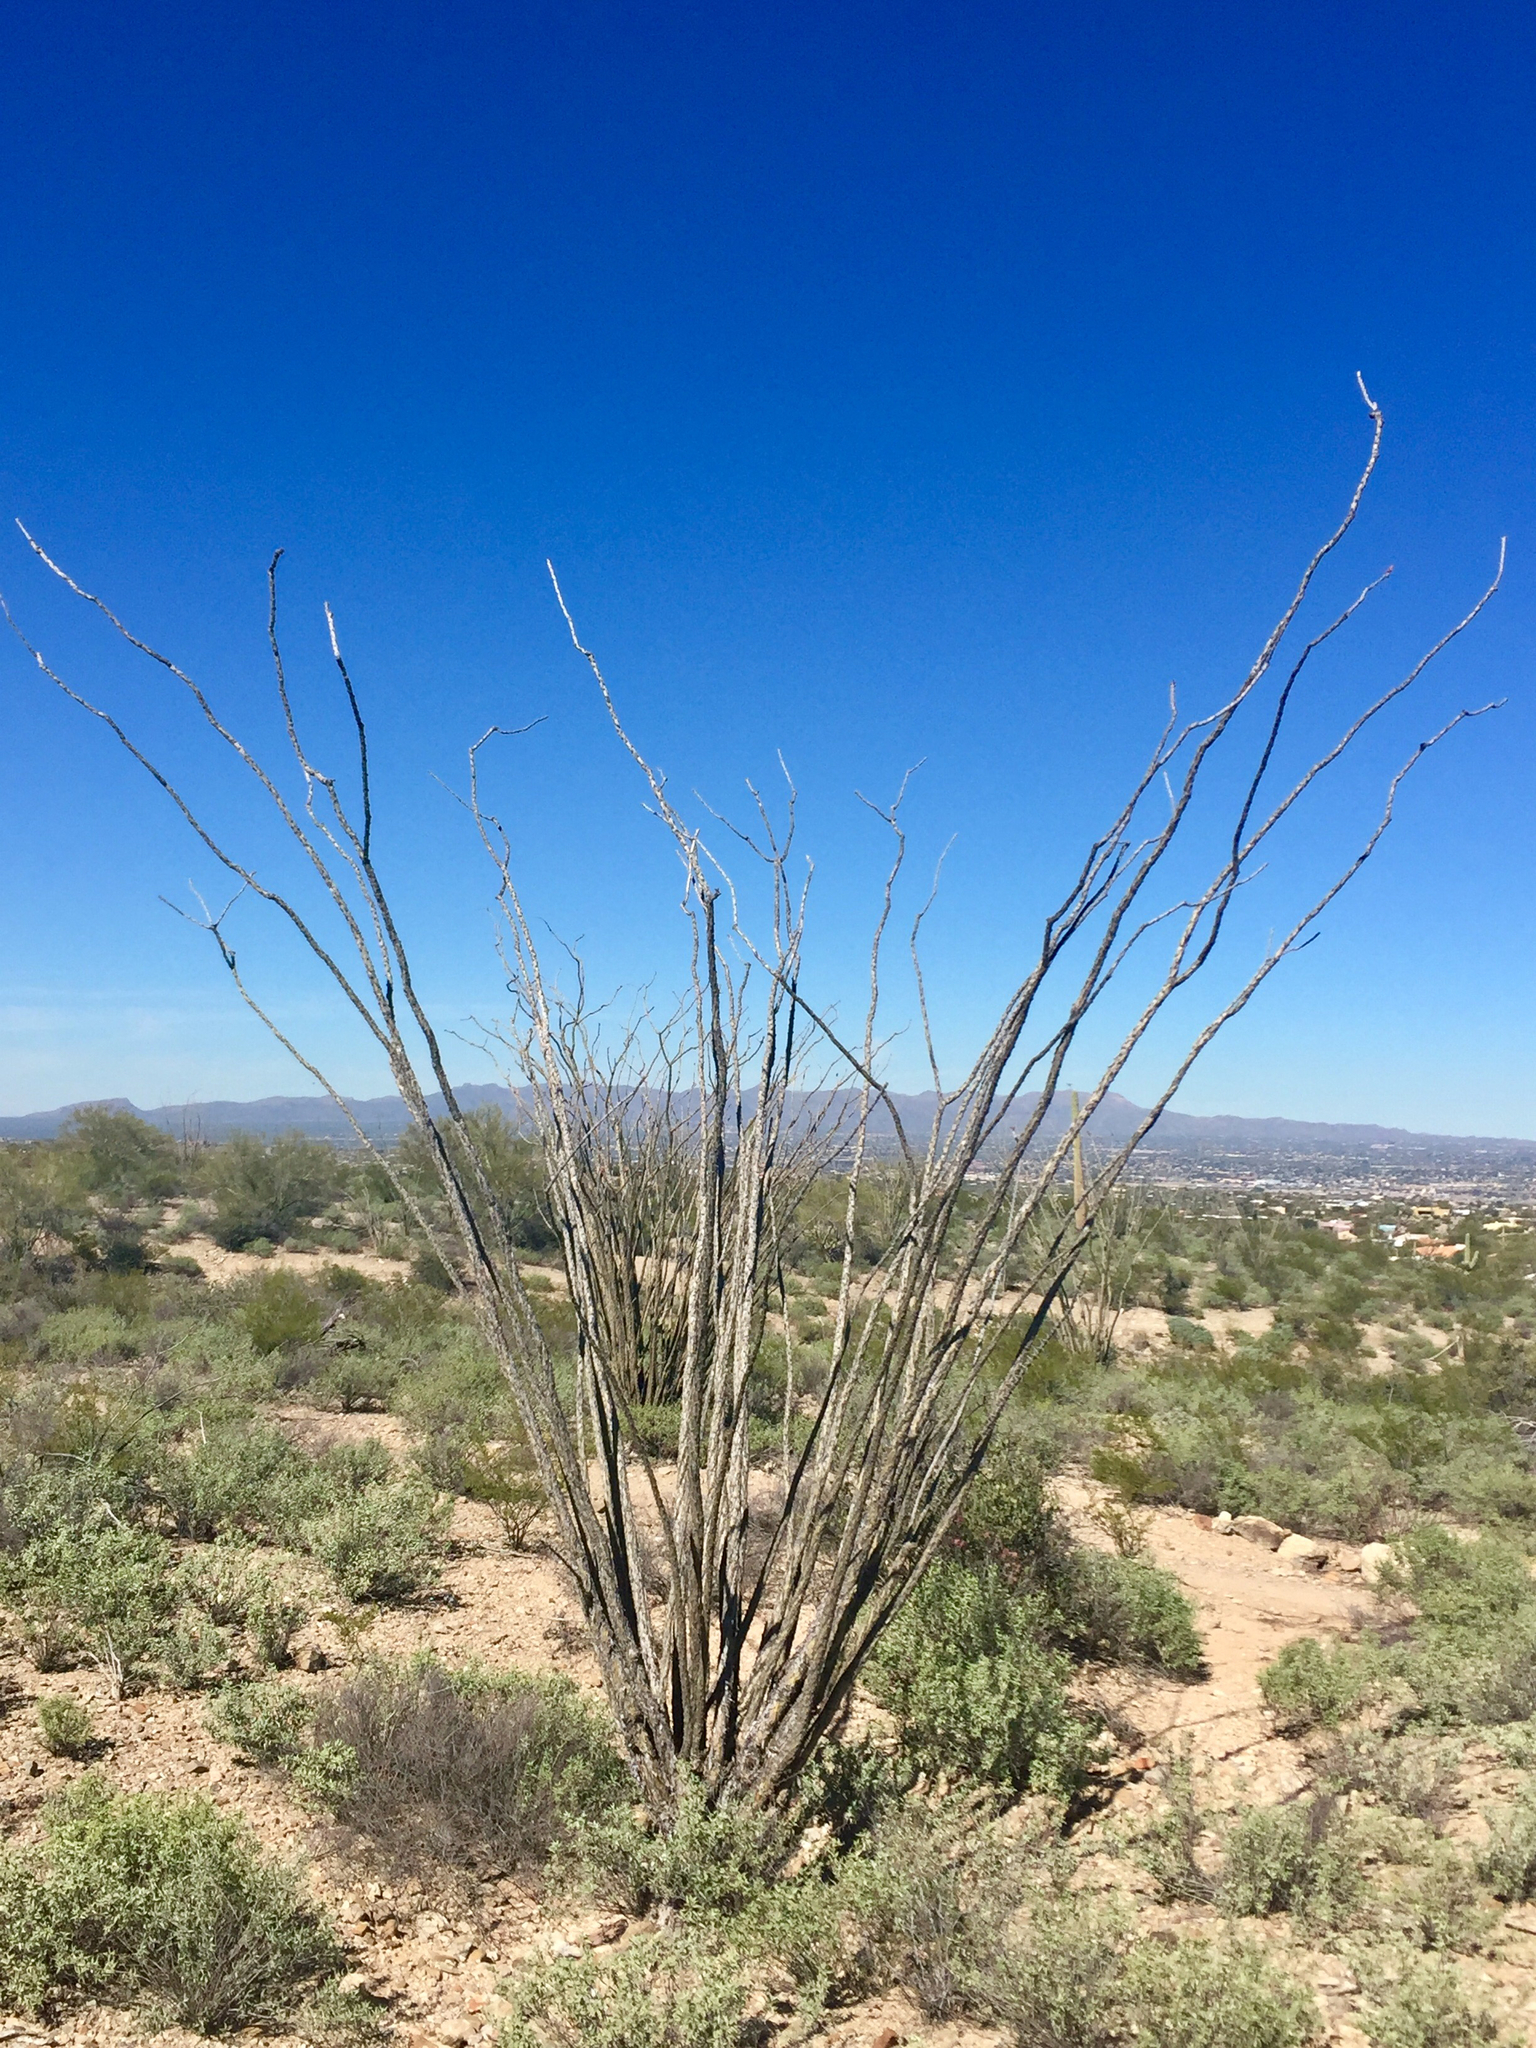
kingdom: Plantae
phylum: Tracheophyta
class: Magnoliopsida
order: Ericales
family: Fouquieriaceae
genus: Fouquieria
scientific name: Fouquieria splendens
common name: Vine-cactus
